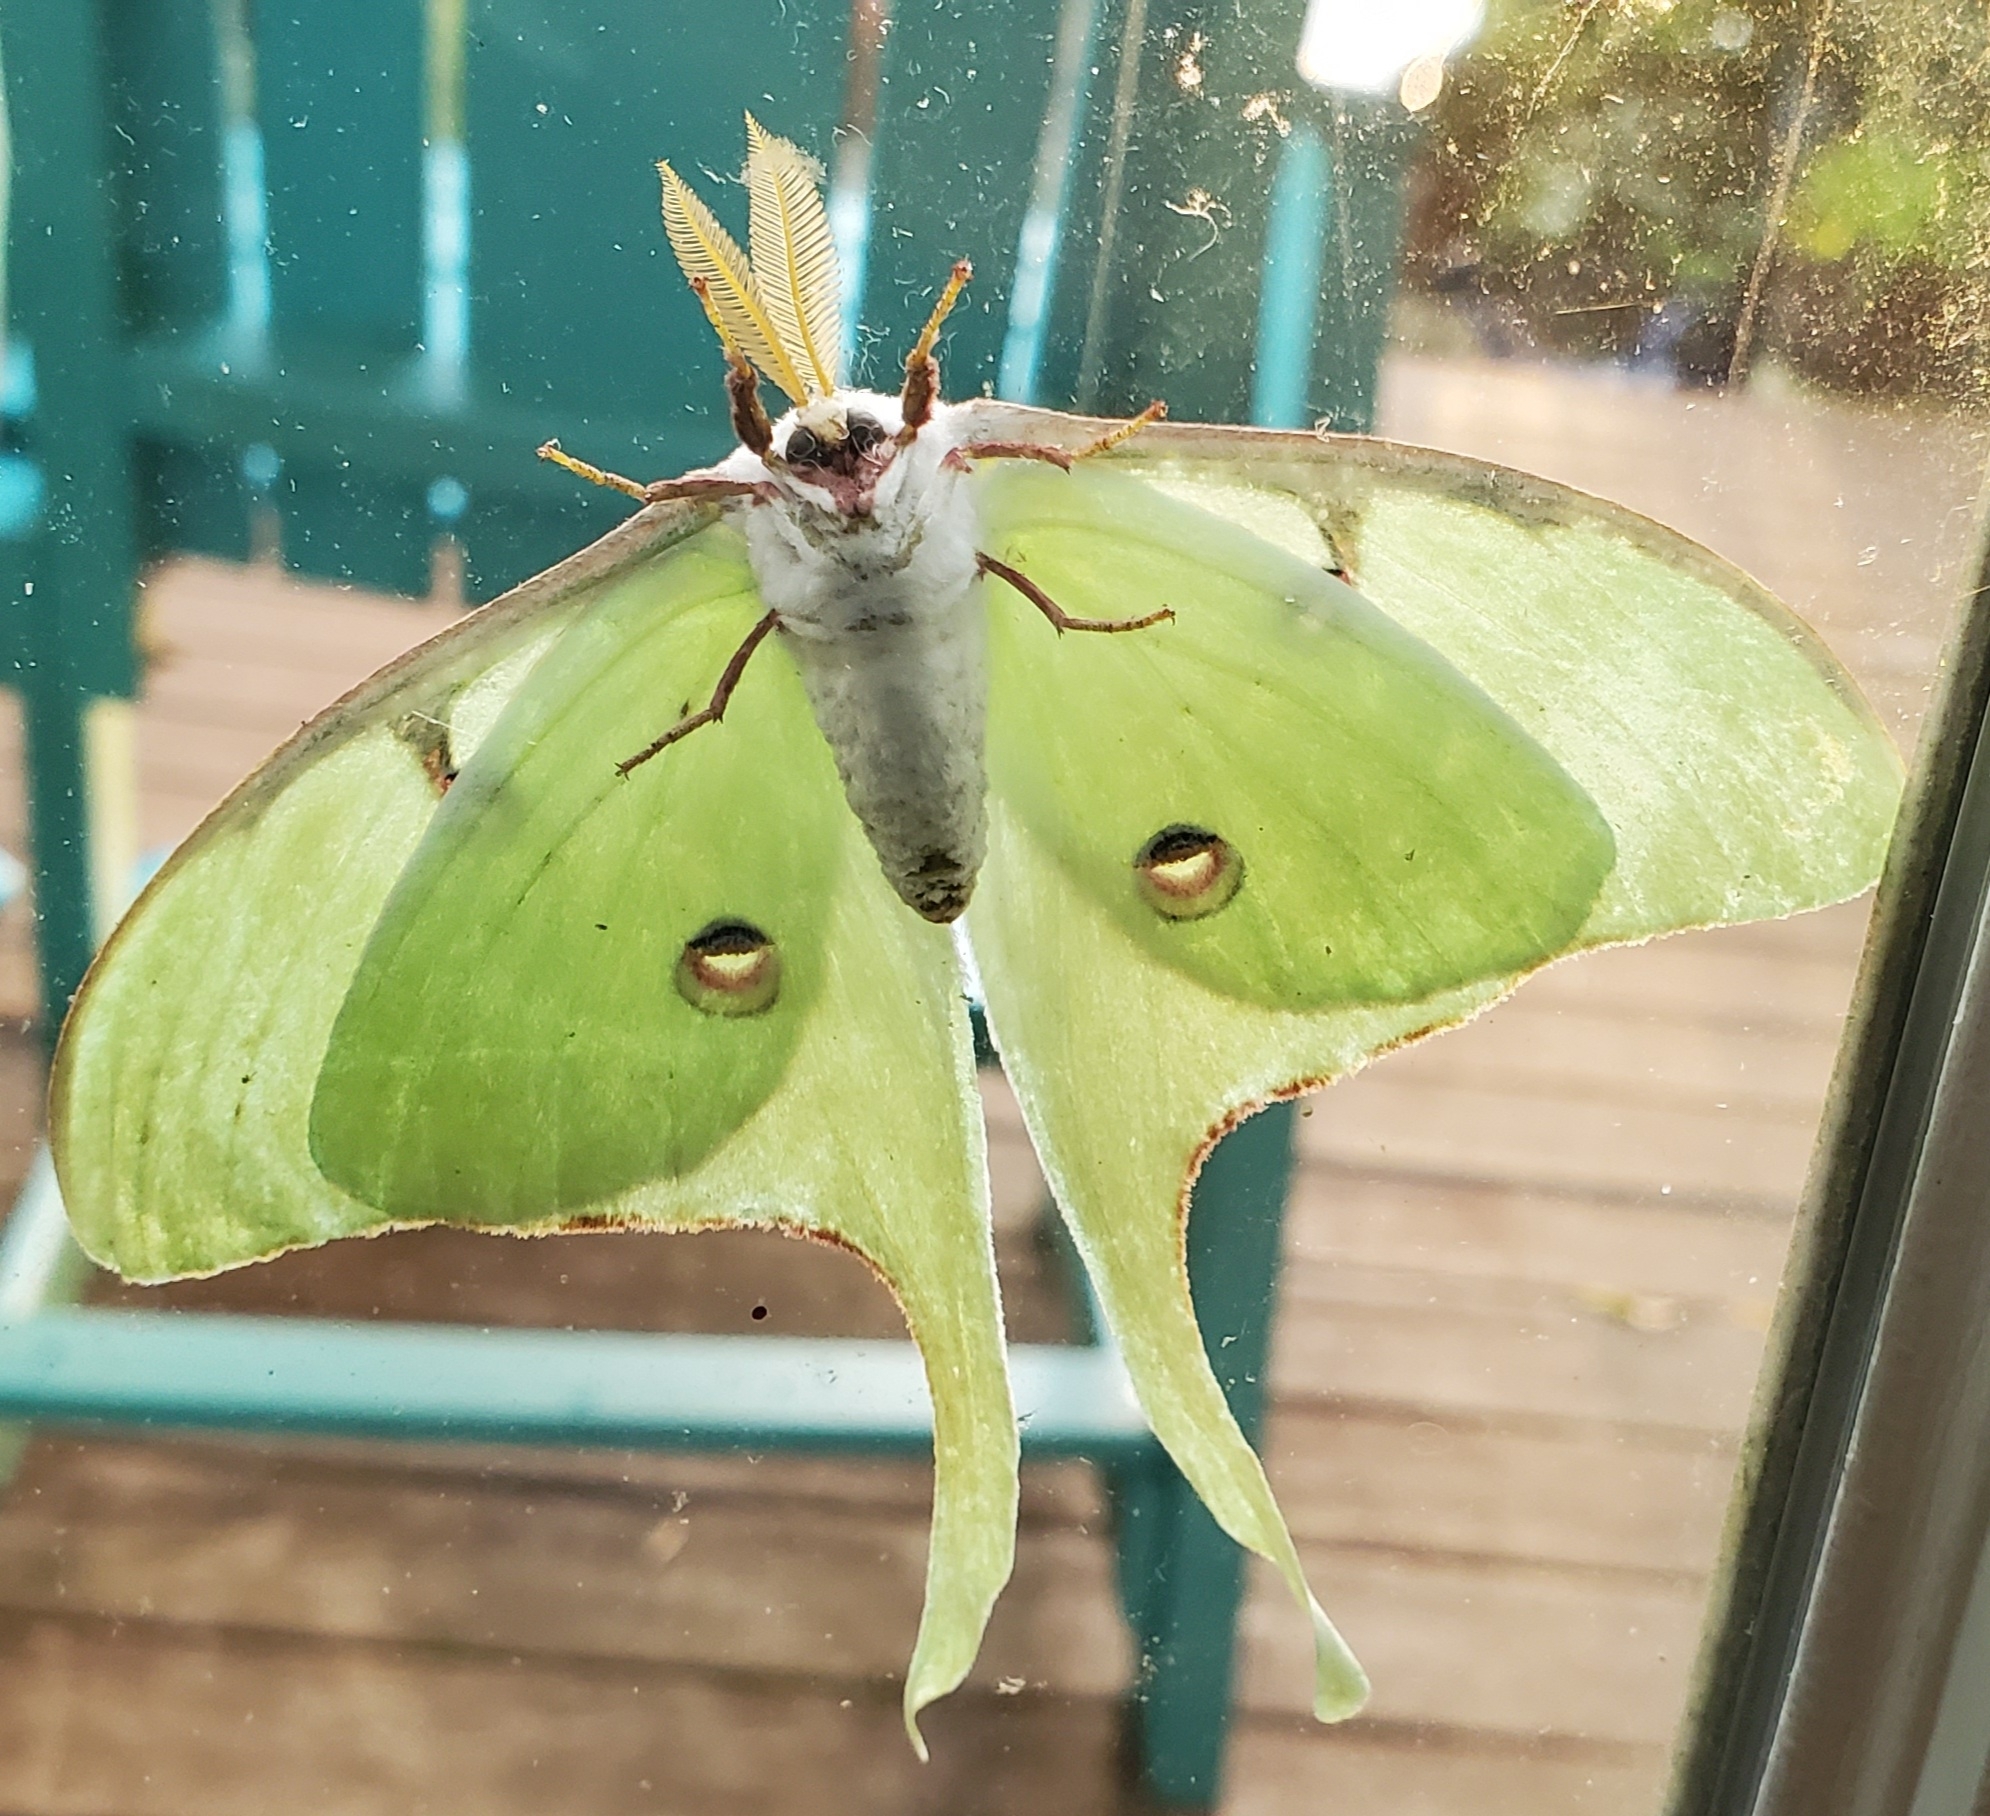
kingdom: Animalia
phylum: Arthropoda
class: Insecta
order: Lepidoptera
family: Saturniidae
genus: Actias
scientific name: Actias luna
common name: Luna moth
